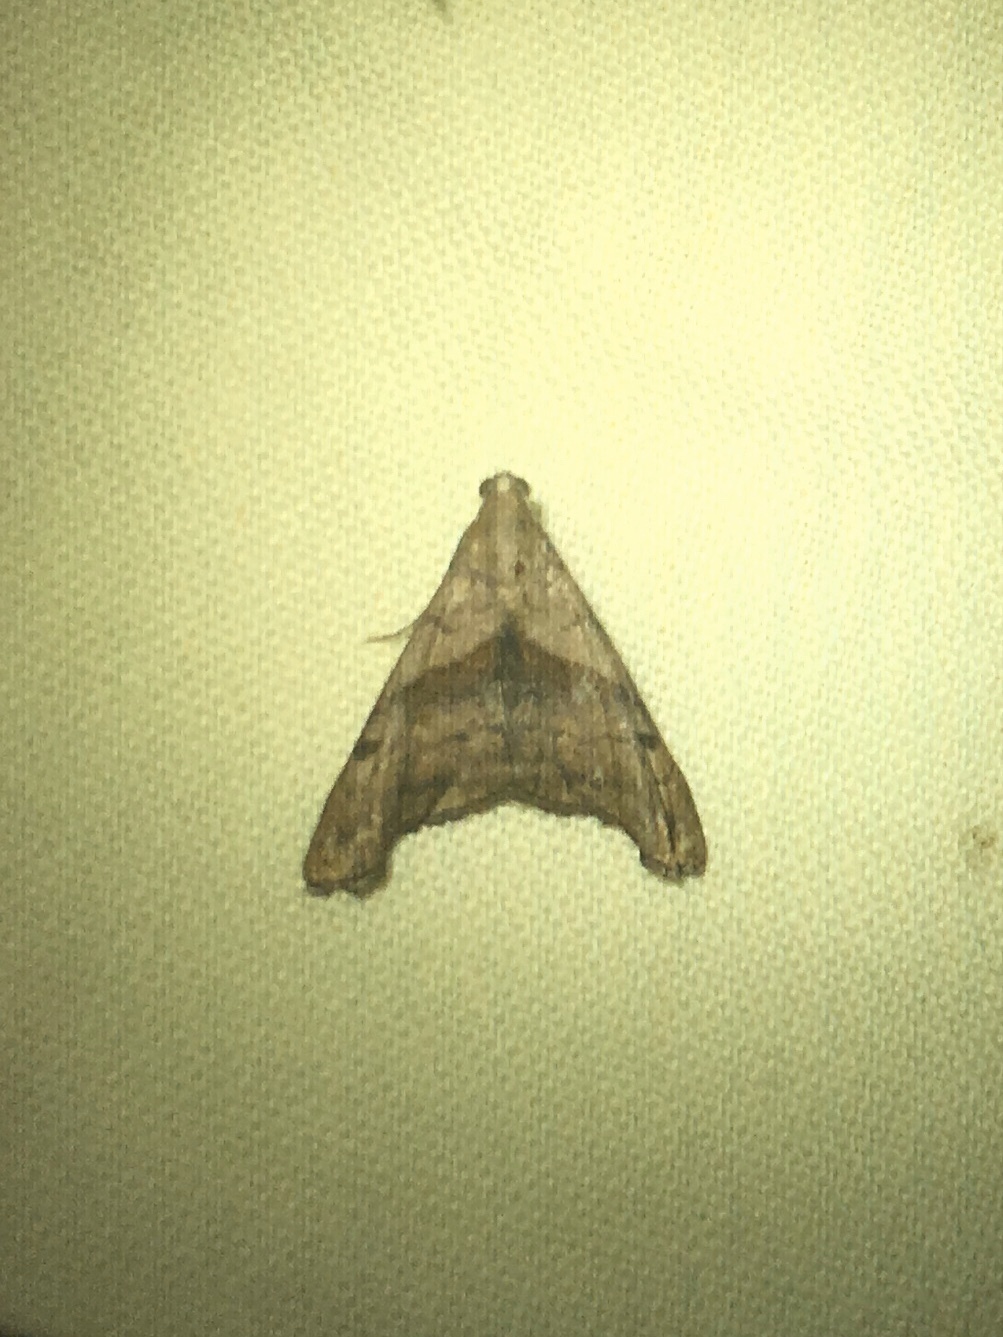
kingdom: Animalia
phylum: Arthropoda
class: Insecta
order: Lepidoptera
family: Erebidae
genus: Palthis
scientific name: Palthis angulalis
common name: Dark-spotted palthis moth
